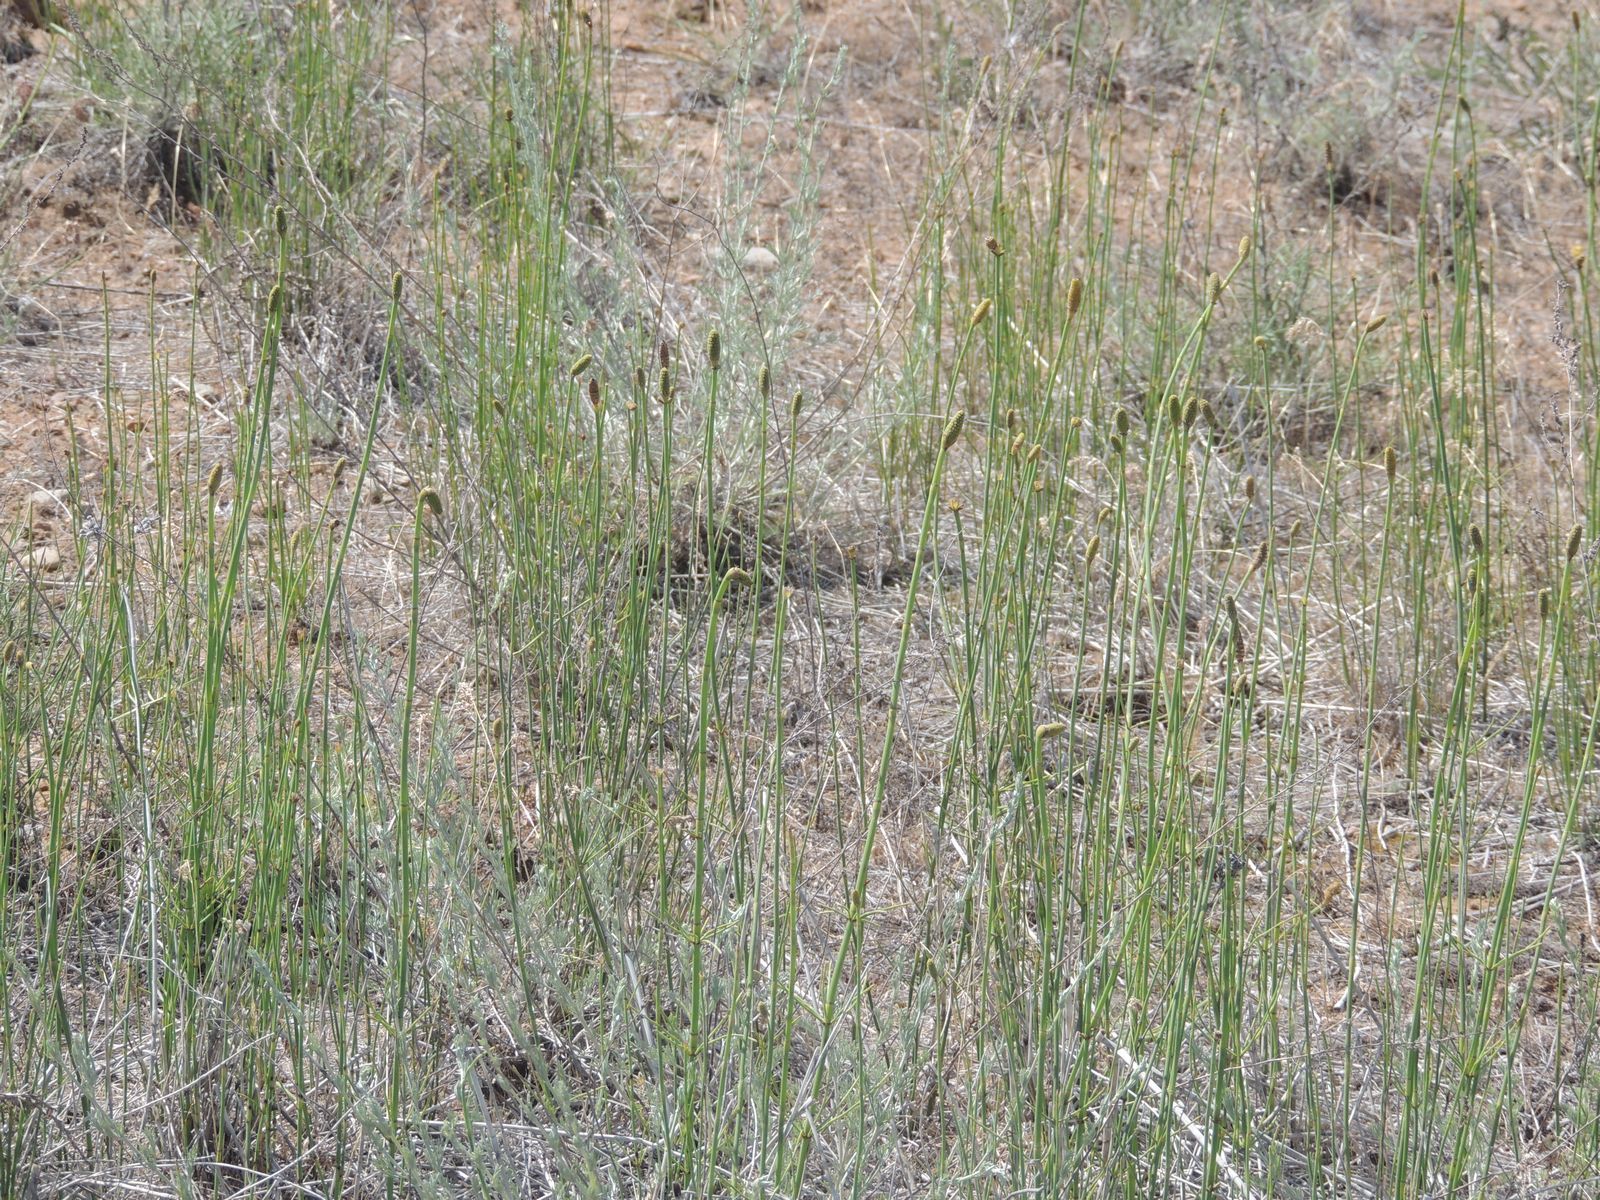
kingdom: Plantae
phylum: Tracheophyta
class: Polypodiopsida
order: Equisetales
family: Equisetaceae
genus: Equisetum
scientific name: Equisetum ramosissimum
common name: Branched horsetail
